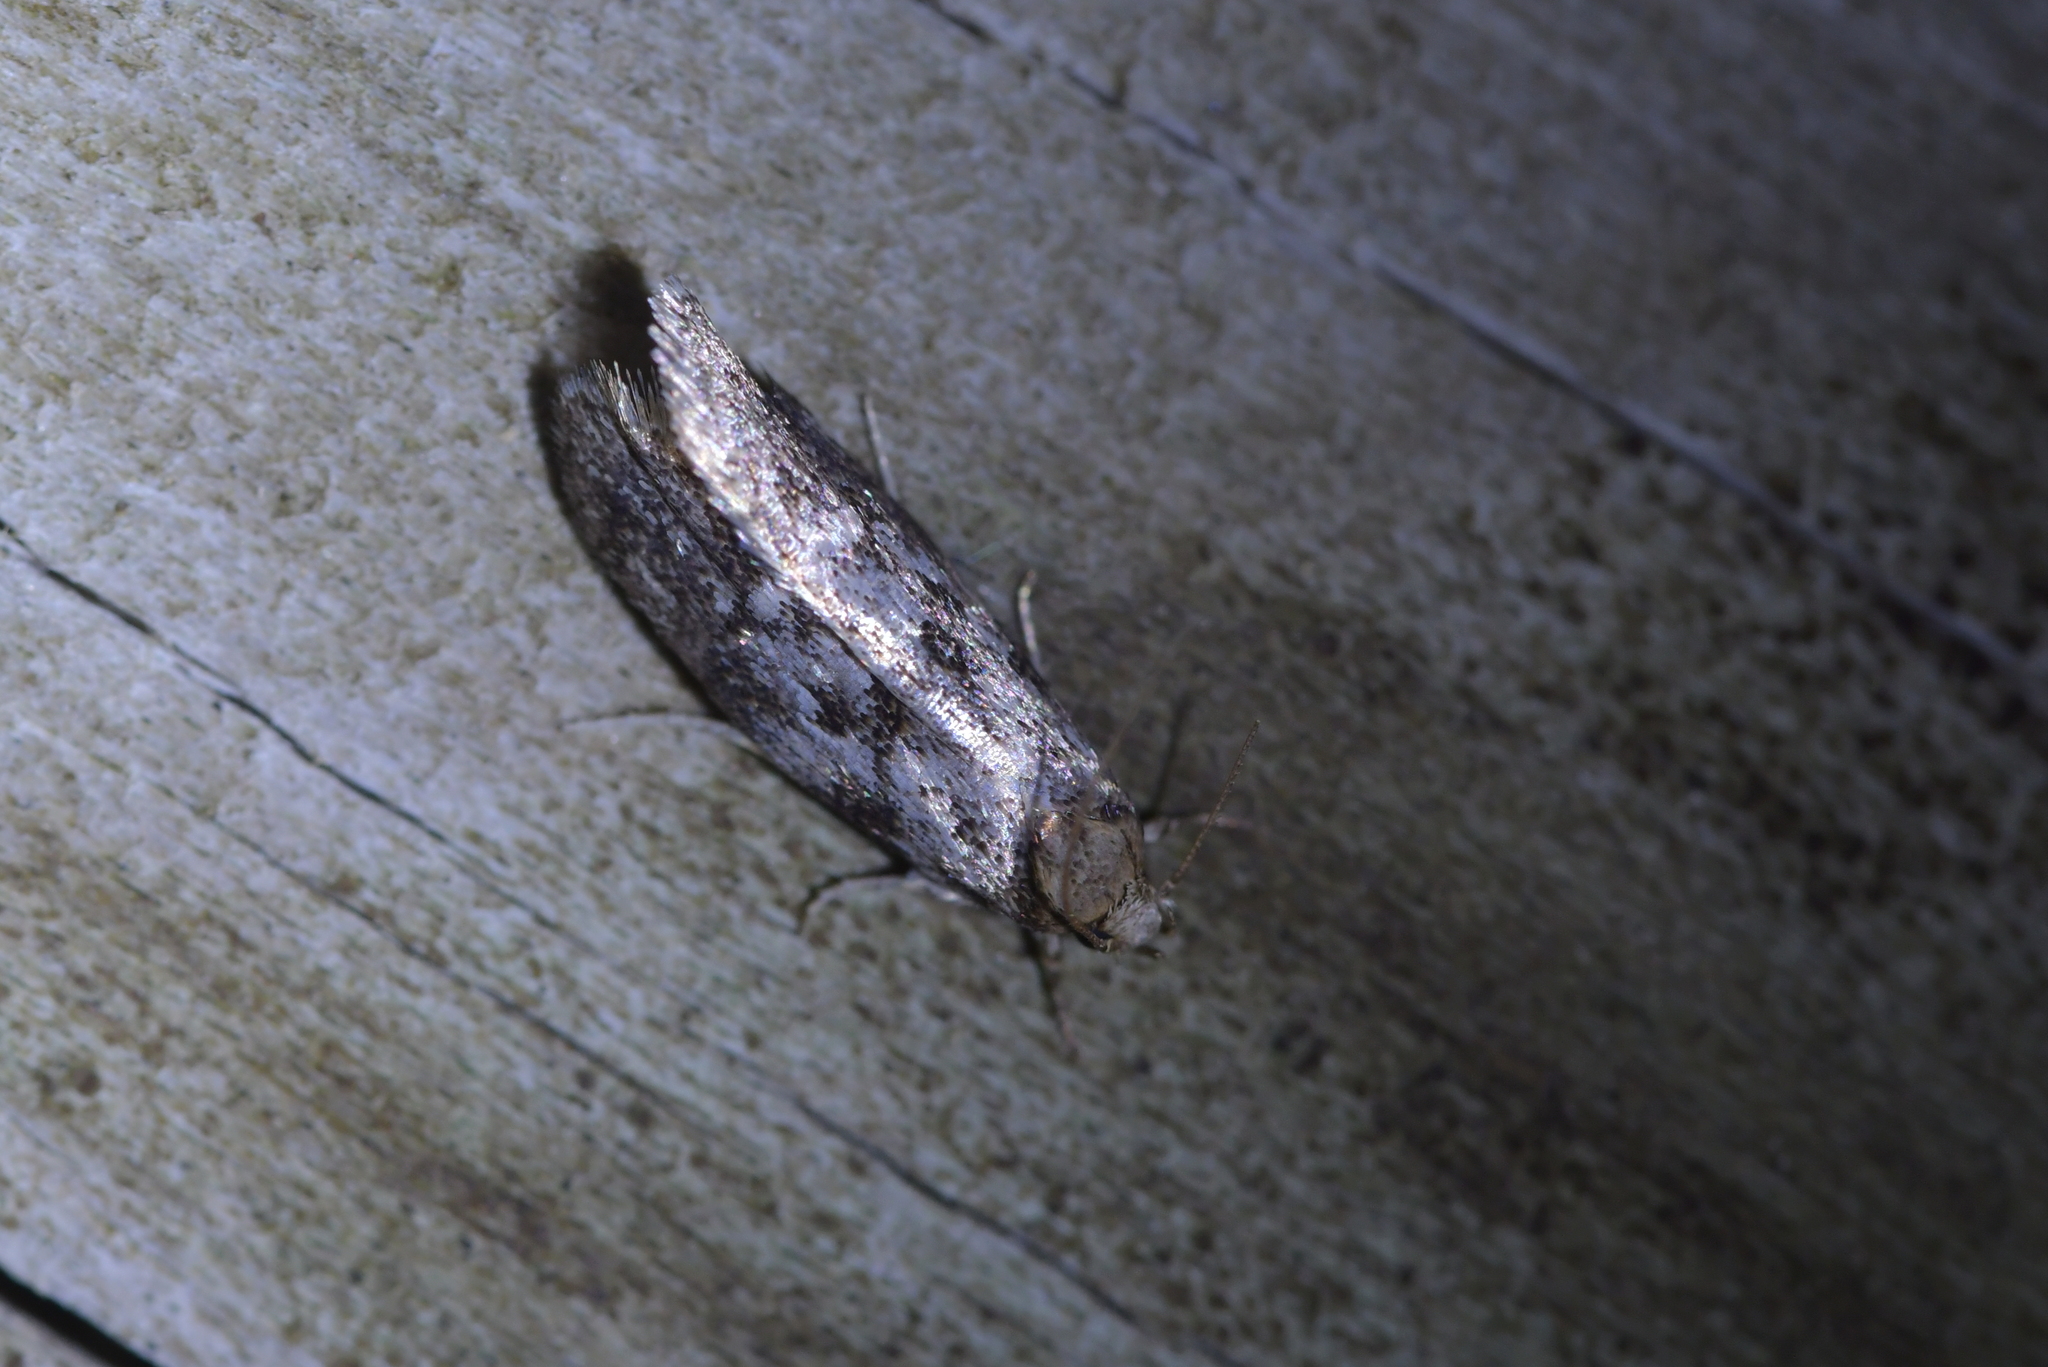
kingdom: Animalia
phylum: Arthropoda
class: Insecta
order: Lepidoptera
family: Oecophoridae
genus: Trachypepla
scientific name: Trachypepla photinella
